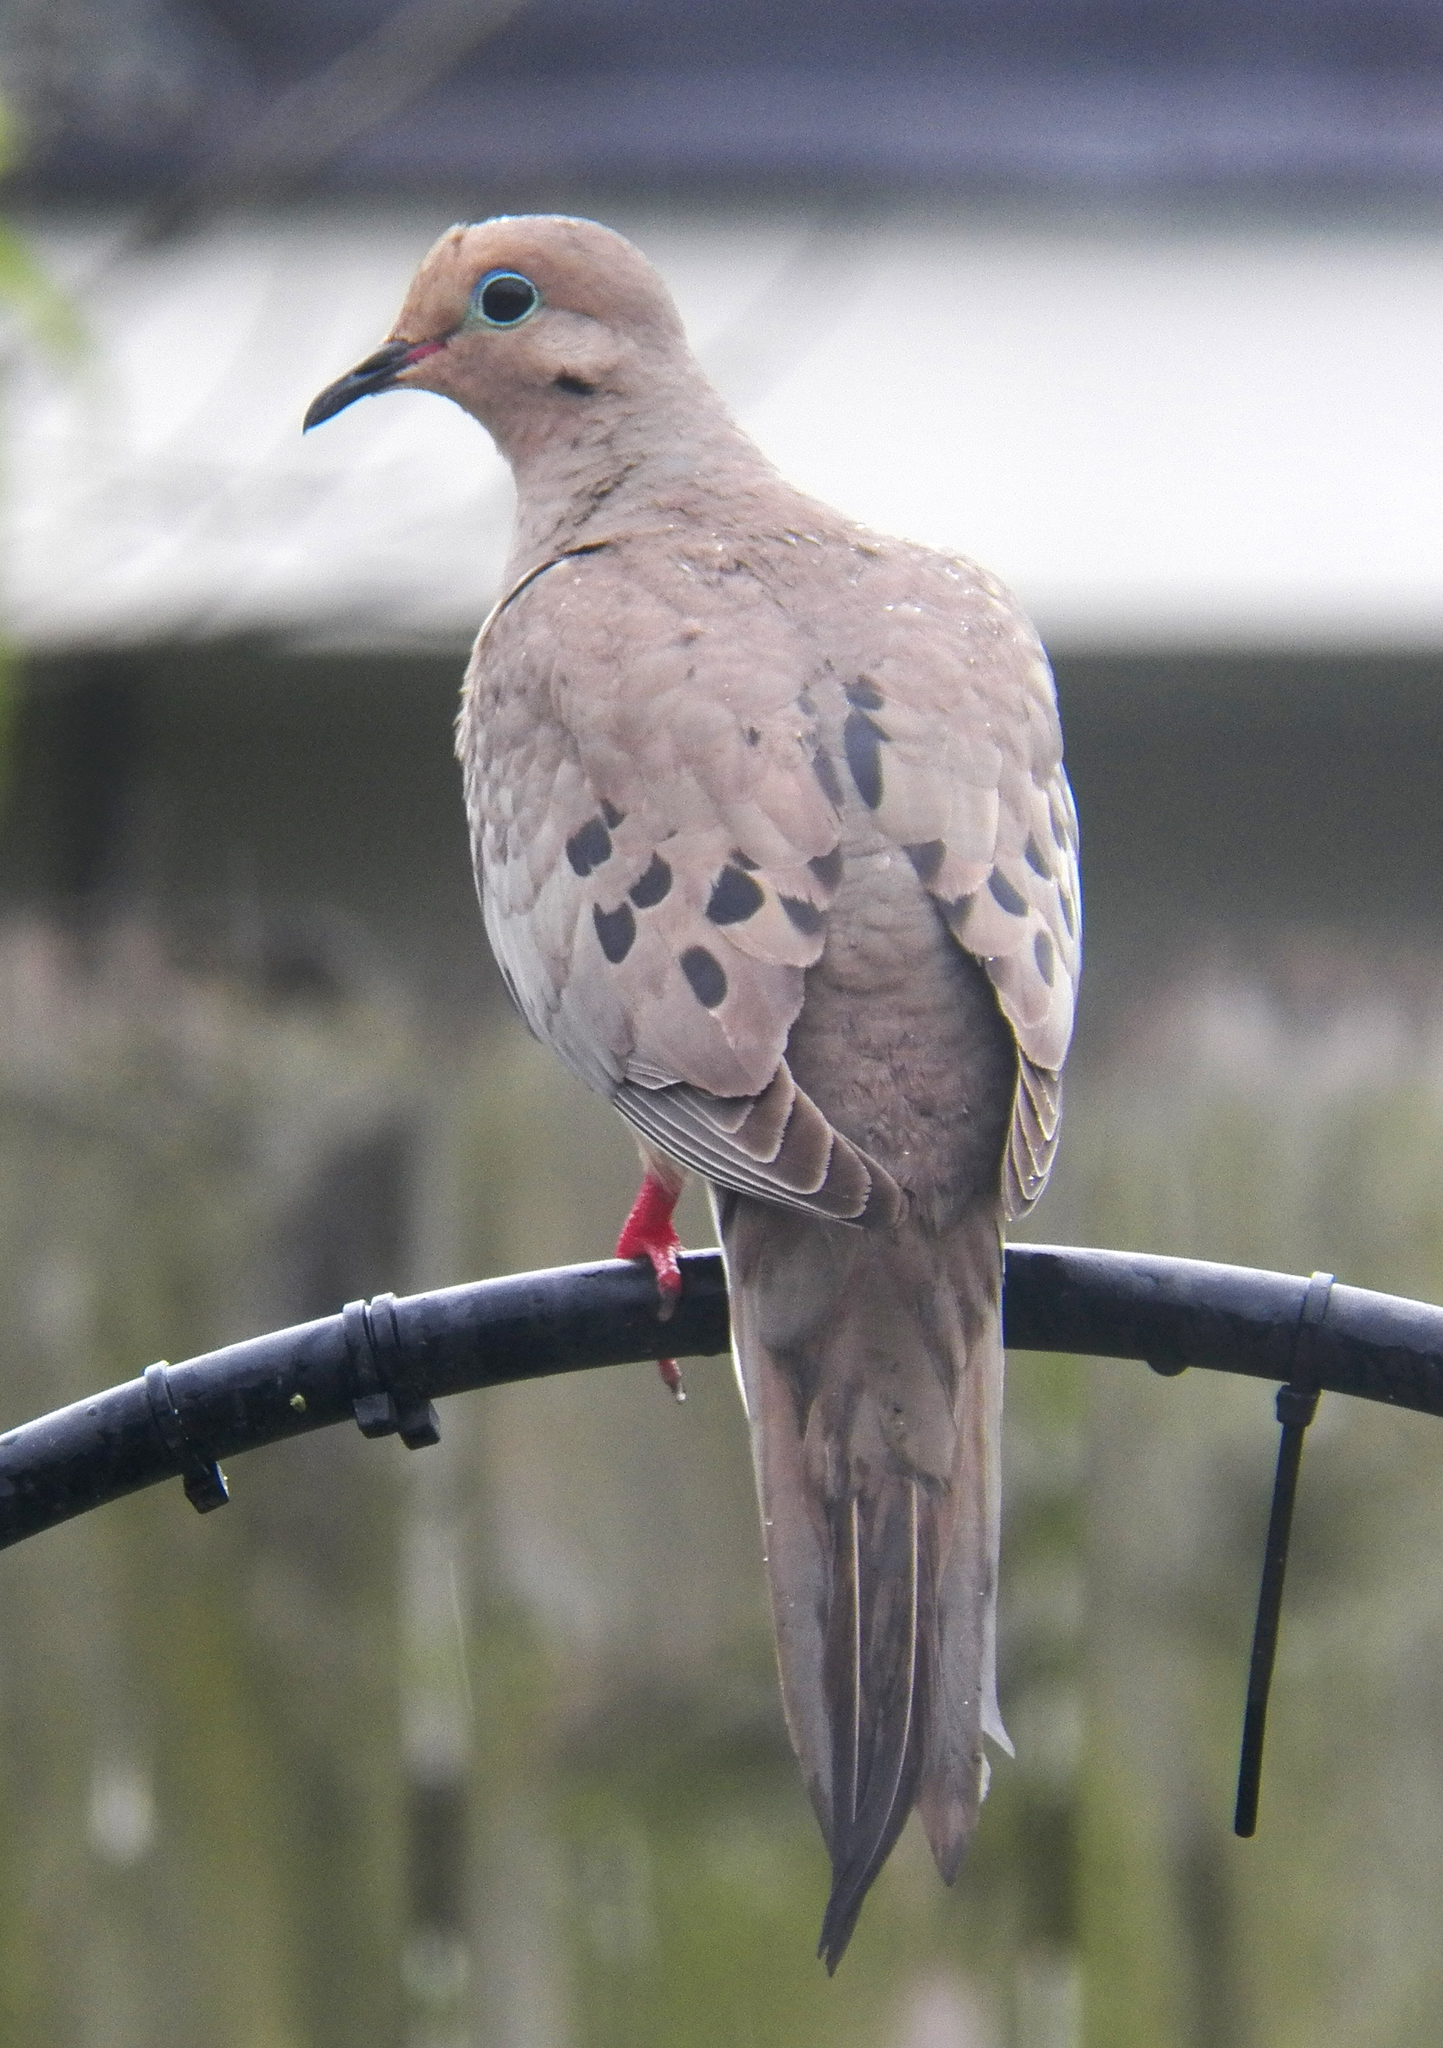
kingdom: Animalia
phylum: Chordata
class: Aves
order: Columbiformes
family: Columbidae
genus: Zenaida
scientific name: Zenaida macroura
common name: Mourning dove
